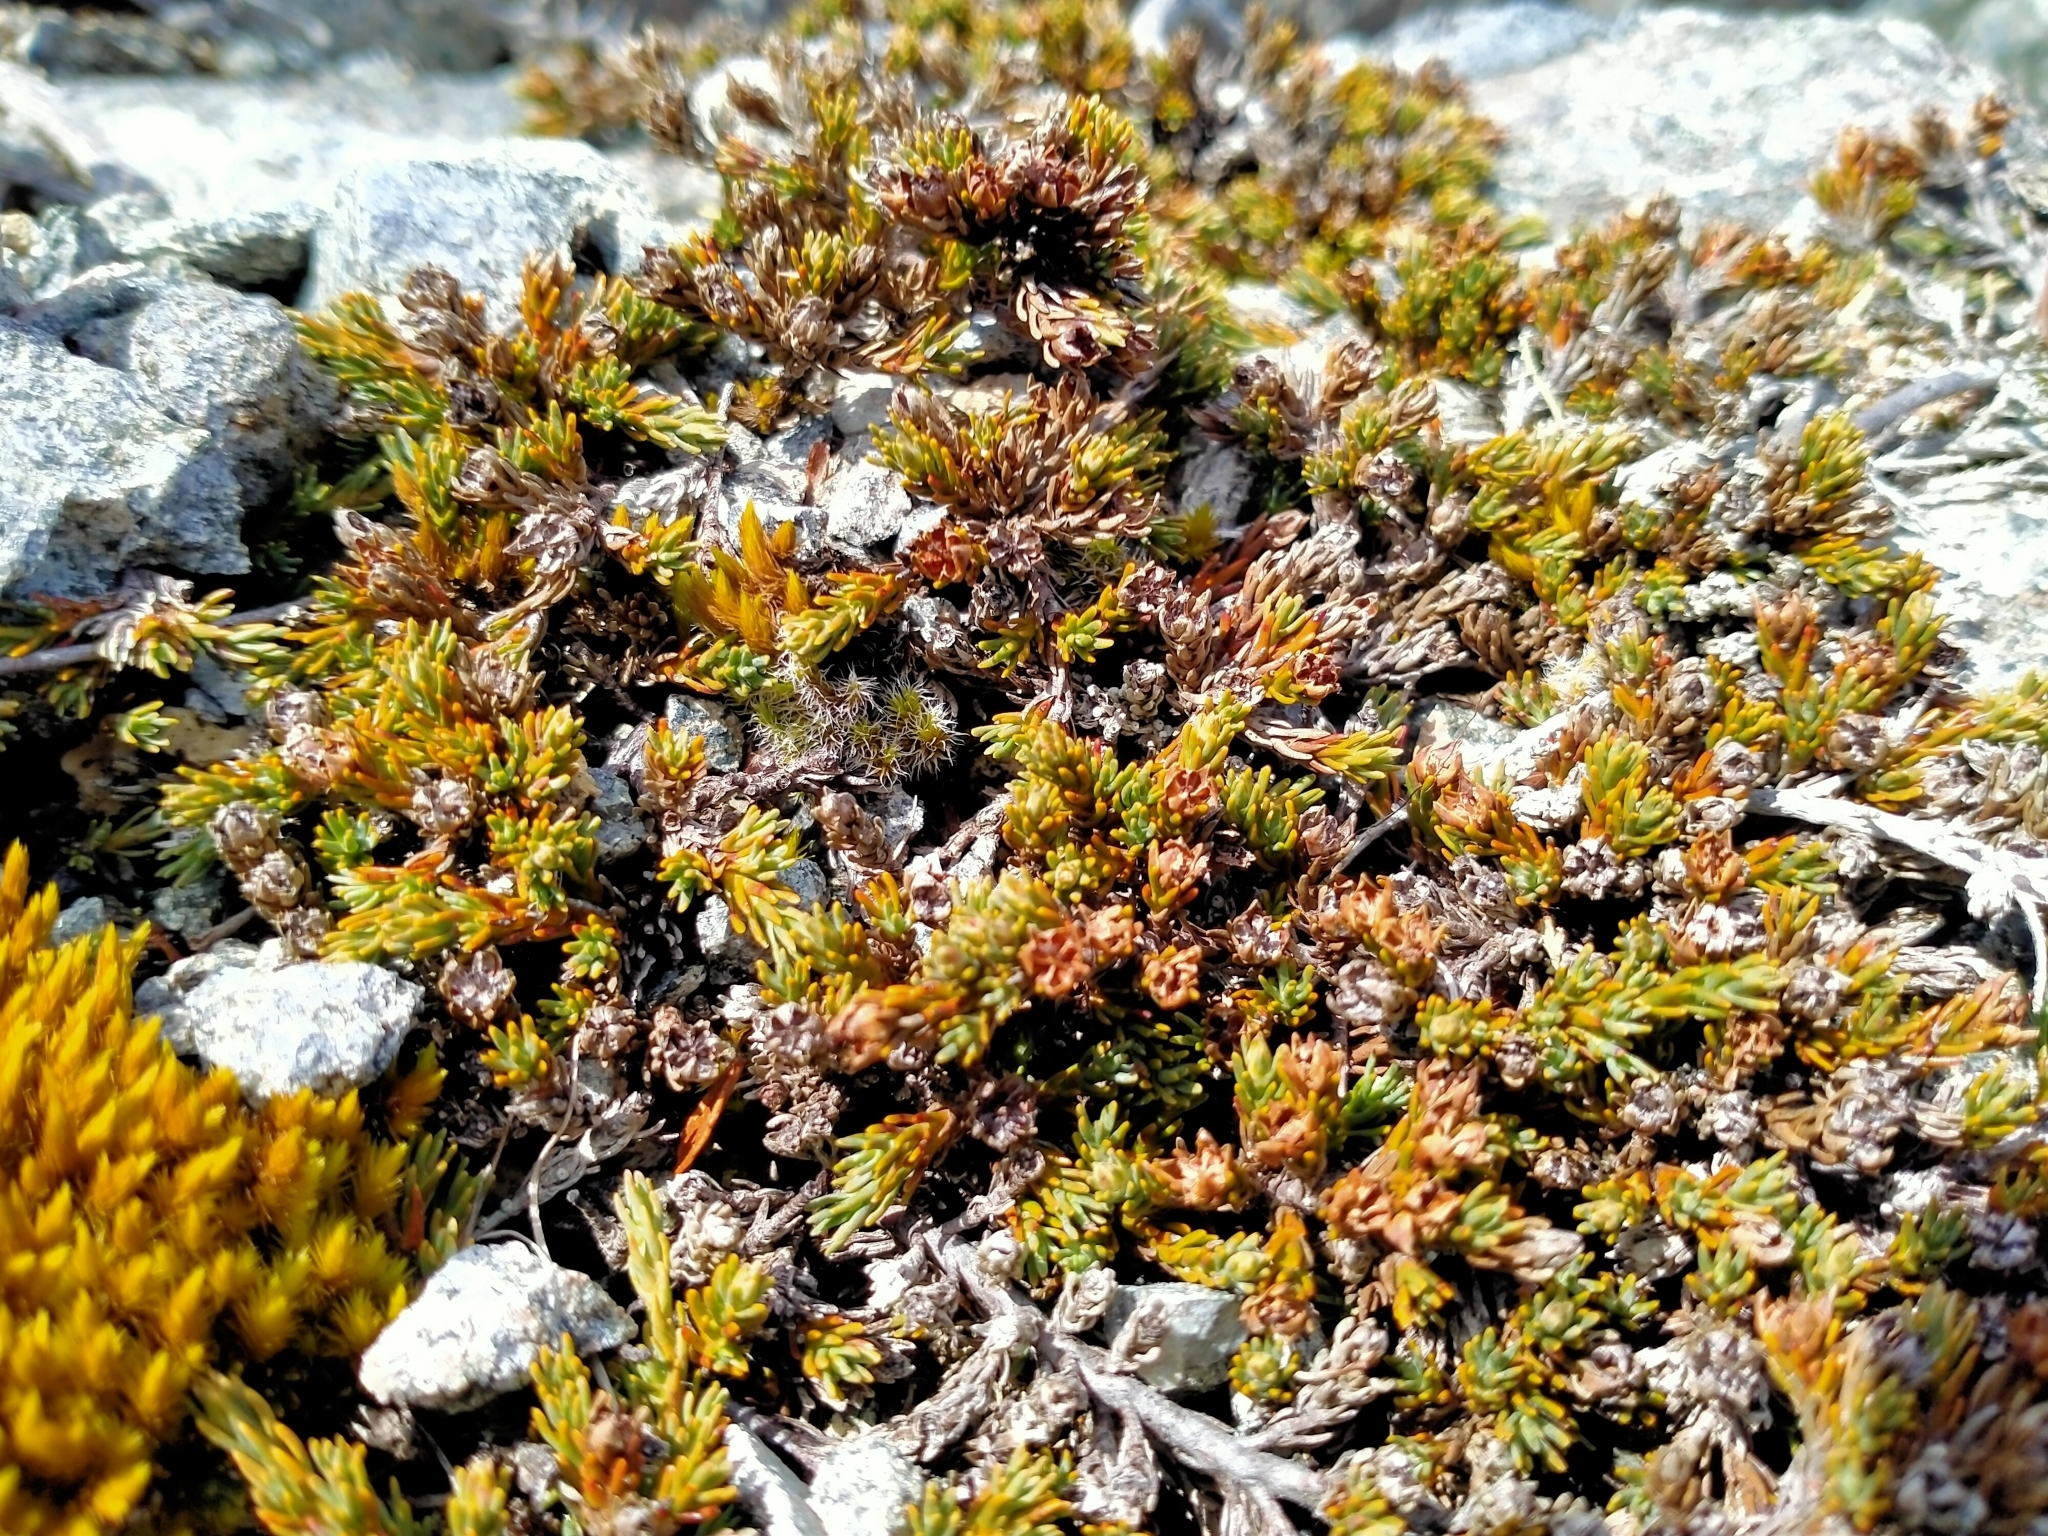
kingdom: Plantae
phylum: Tracheophyta
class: Magnoliopsida
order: Ericales
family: Ericaceae
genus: Dracophyllum
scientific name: Dracophyllum muscoides
